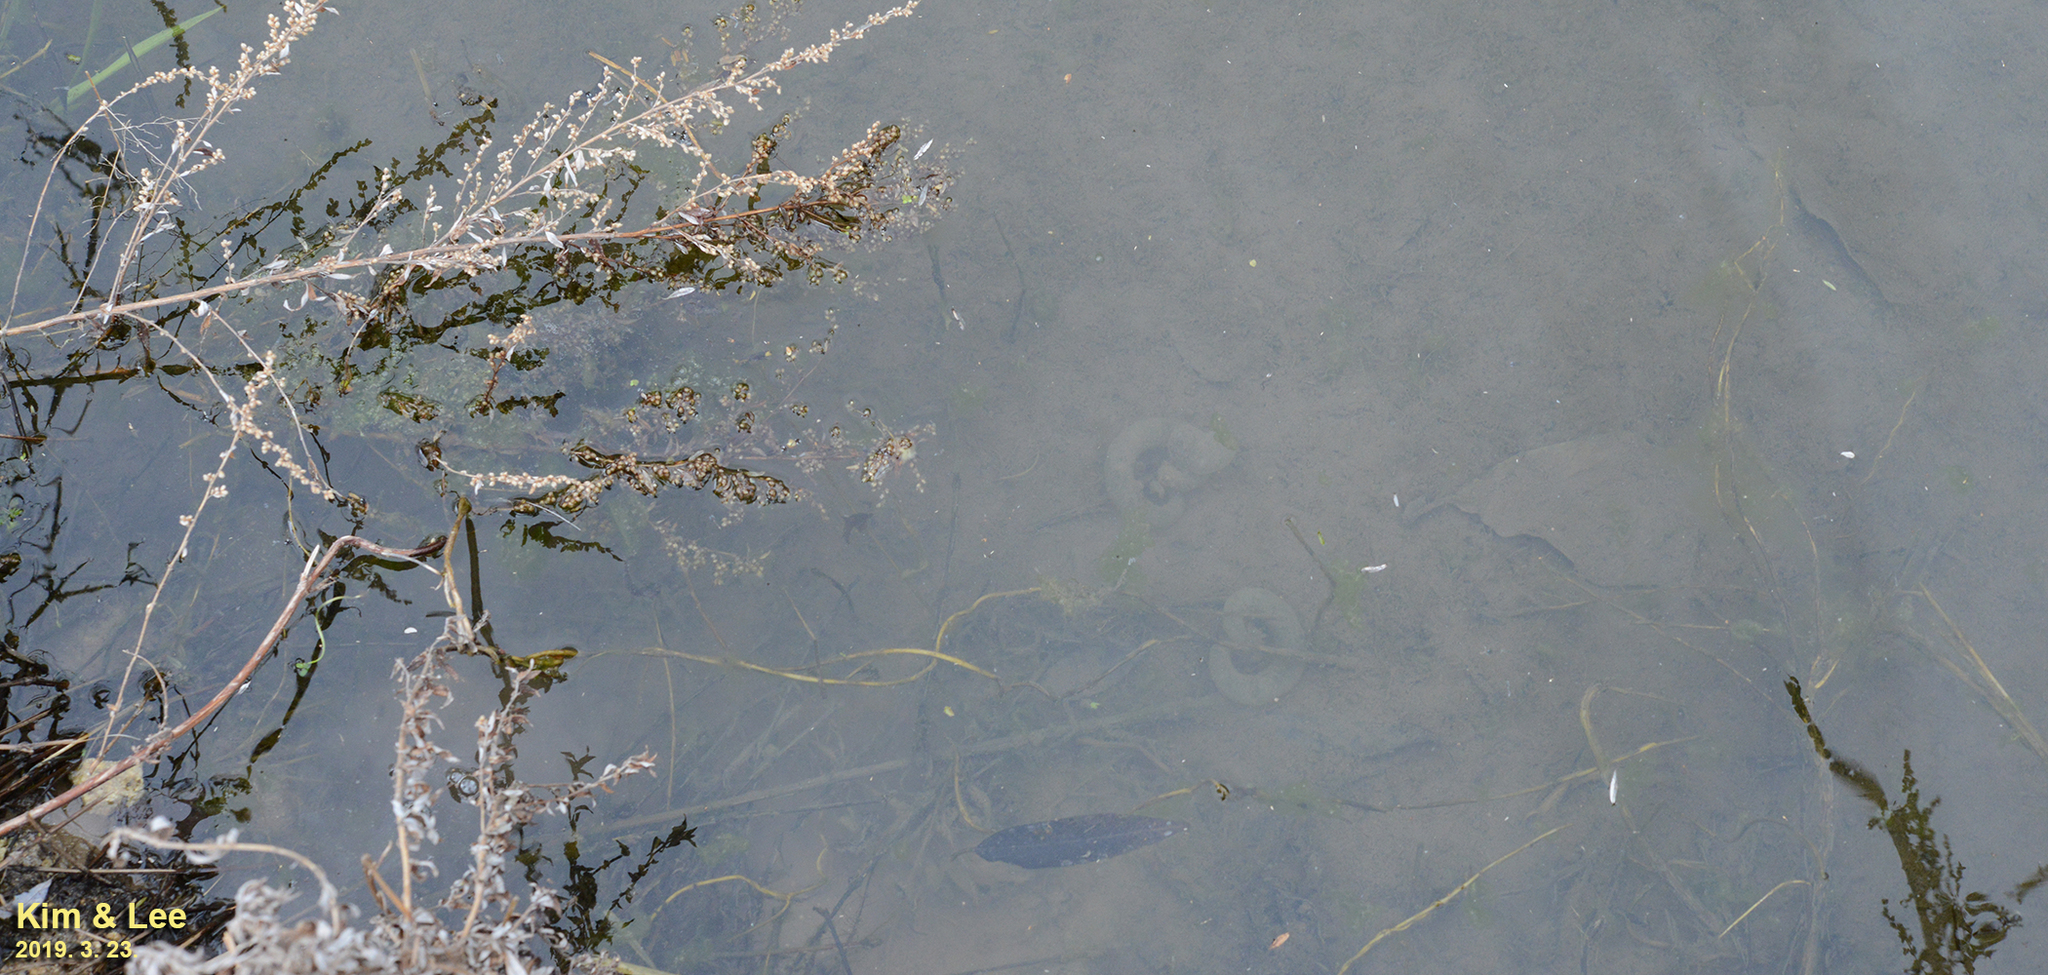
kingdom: Animalia
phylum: Chordata
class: Amphibia
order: Caudata
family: Hynobiidae
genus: Hynobius
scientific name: Hynobius leechii
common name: Gensan salamander
